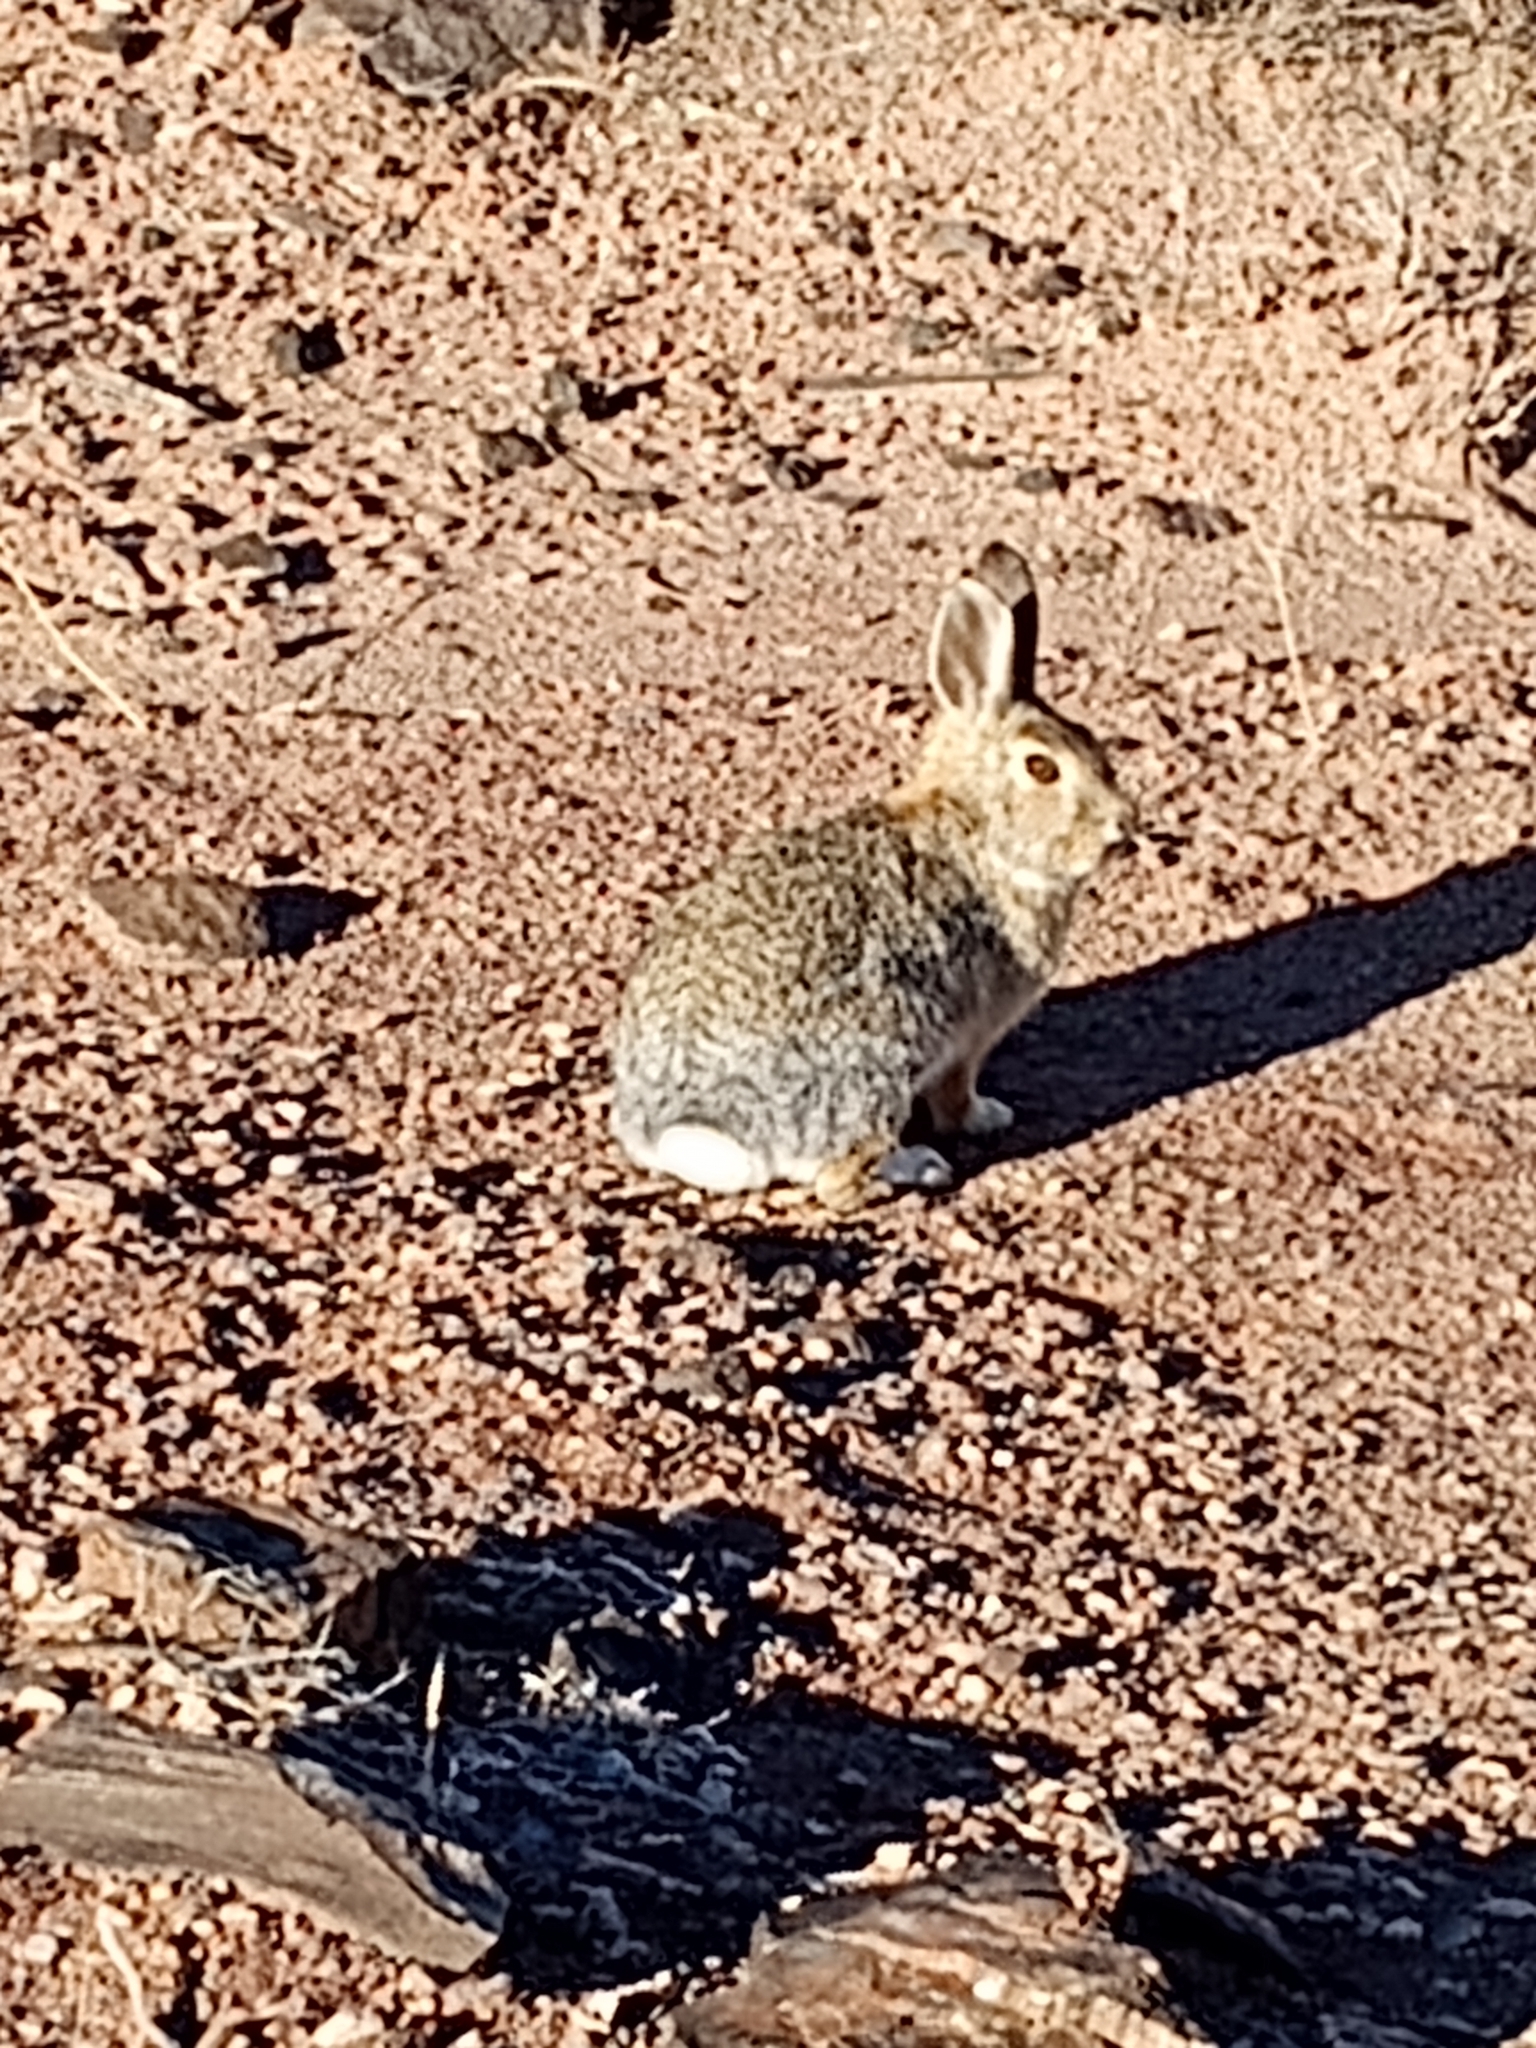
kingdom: Animalia
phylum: Chordata
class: Mammalia
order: Lagomorpha
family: Leporidae
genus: Sylvilagus
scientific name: Sylvilagus audubonii
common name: Desert cottontail
